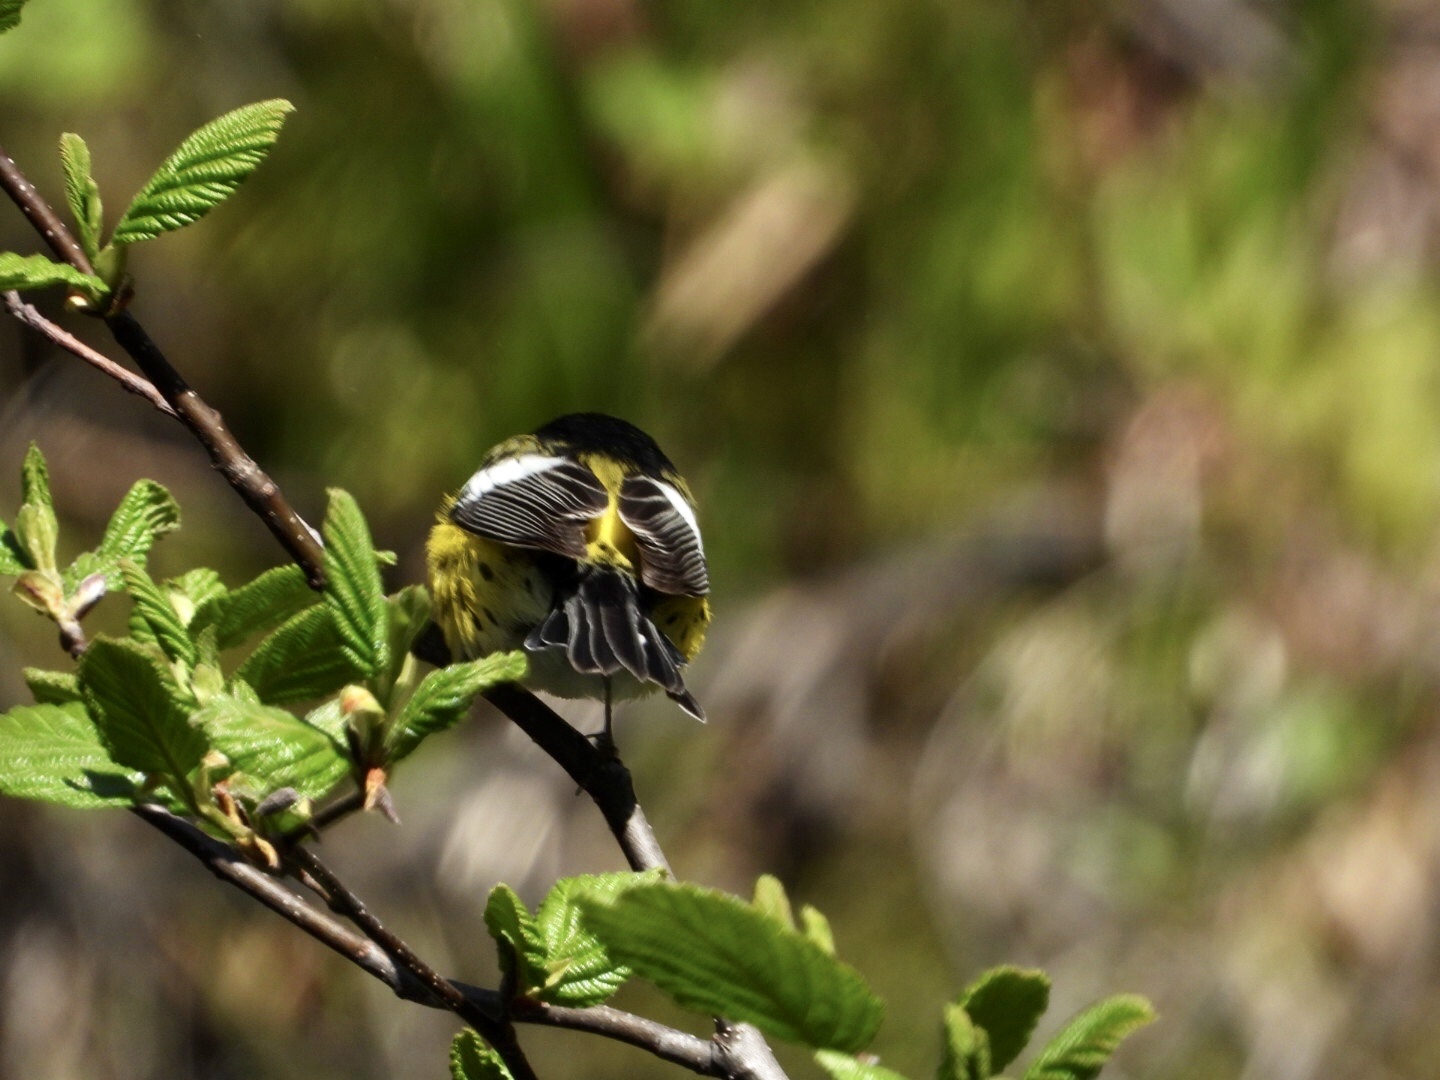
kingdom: Animalia
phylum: Chordata
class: Aves
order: Passeriformes
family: Parulidae
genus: Setophaga
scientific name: Setophaga magnolia
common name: Magnolia warbler
